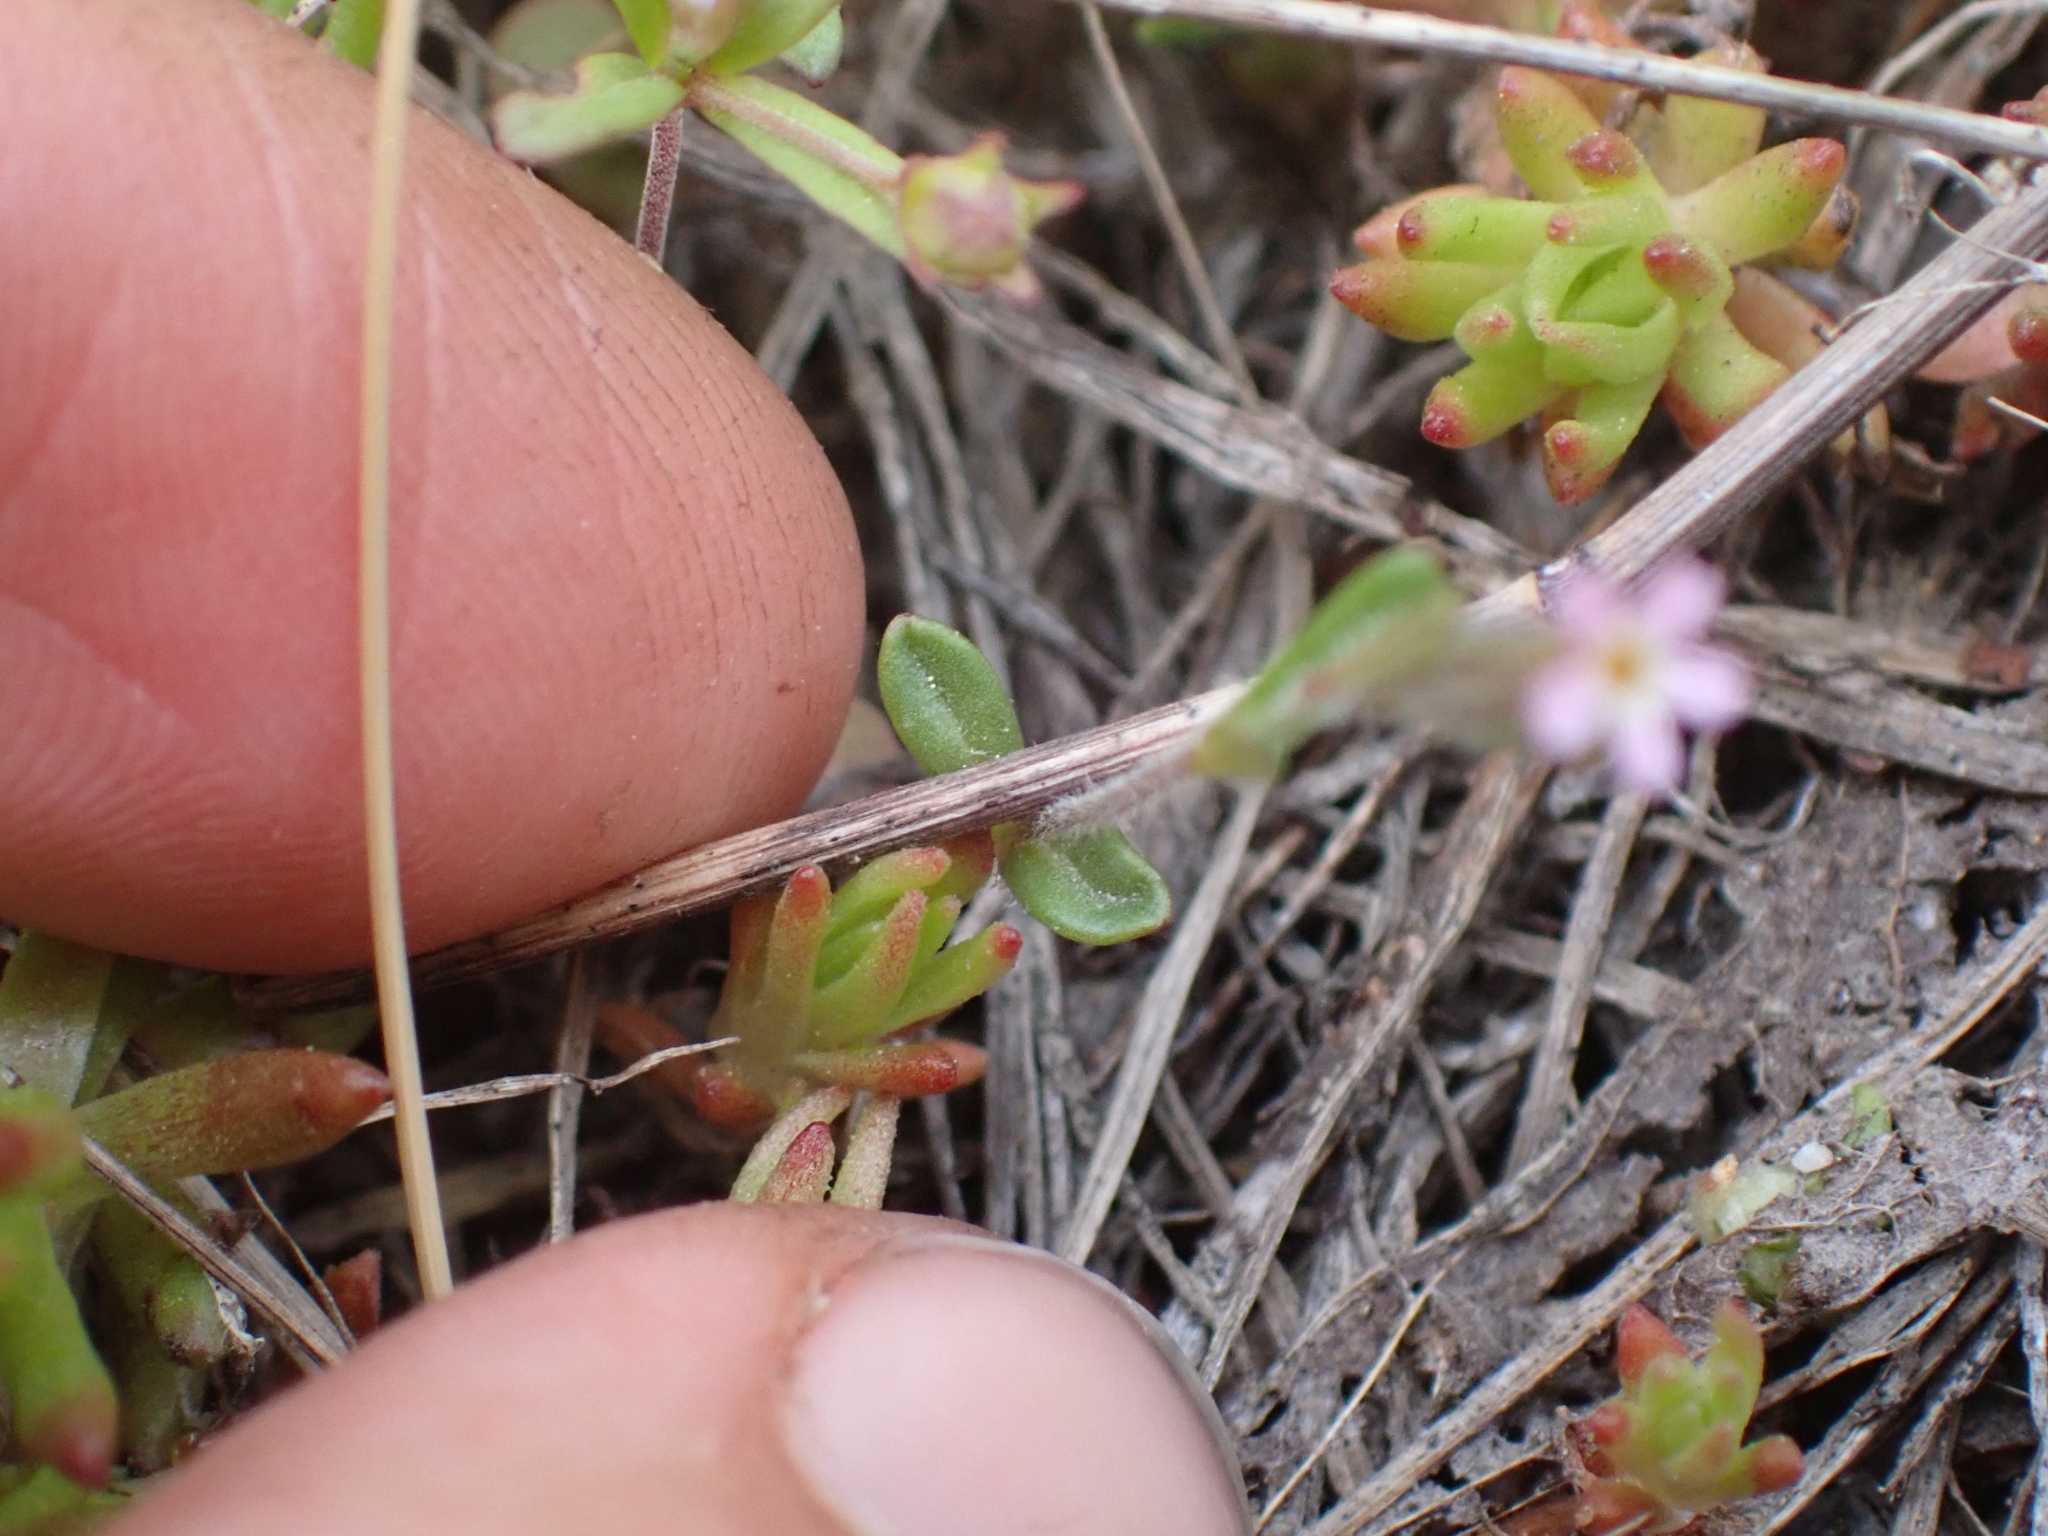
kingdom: Plantae
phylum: Tracheophyta
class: Magnoliopsida
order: Ericales
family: Polemoniaceae
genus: Phlox
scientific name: Phlox gracilis
